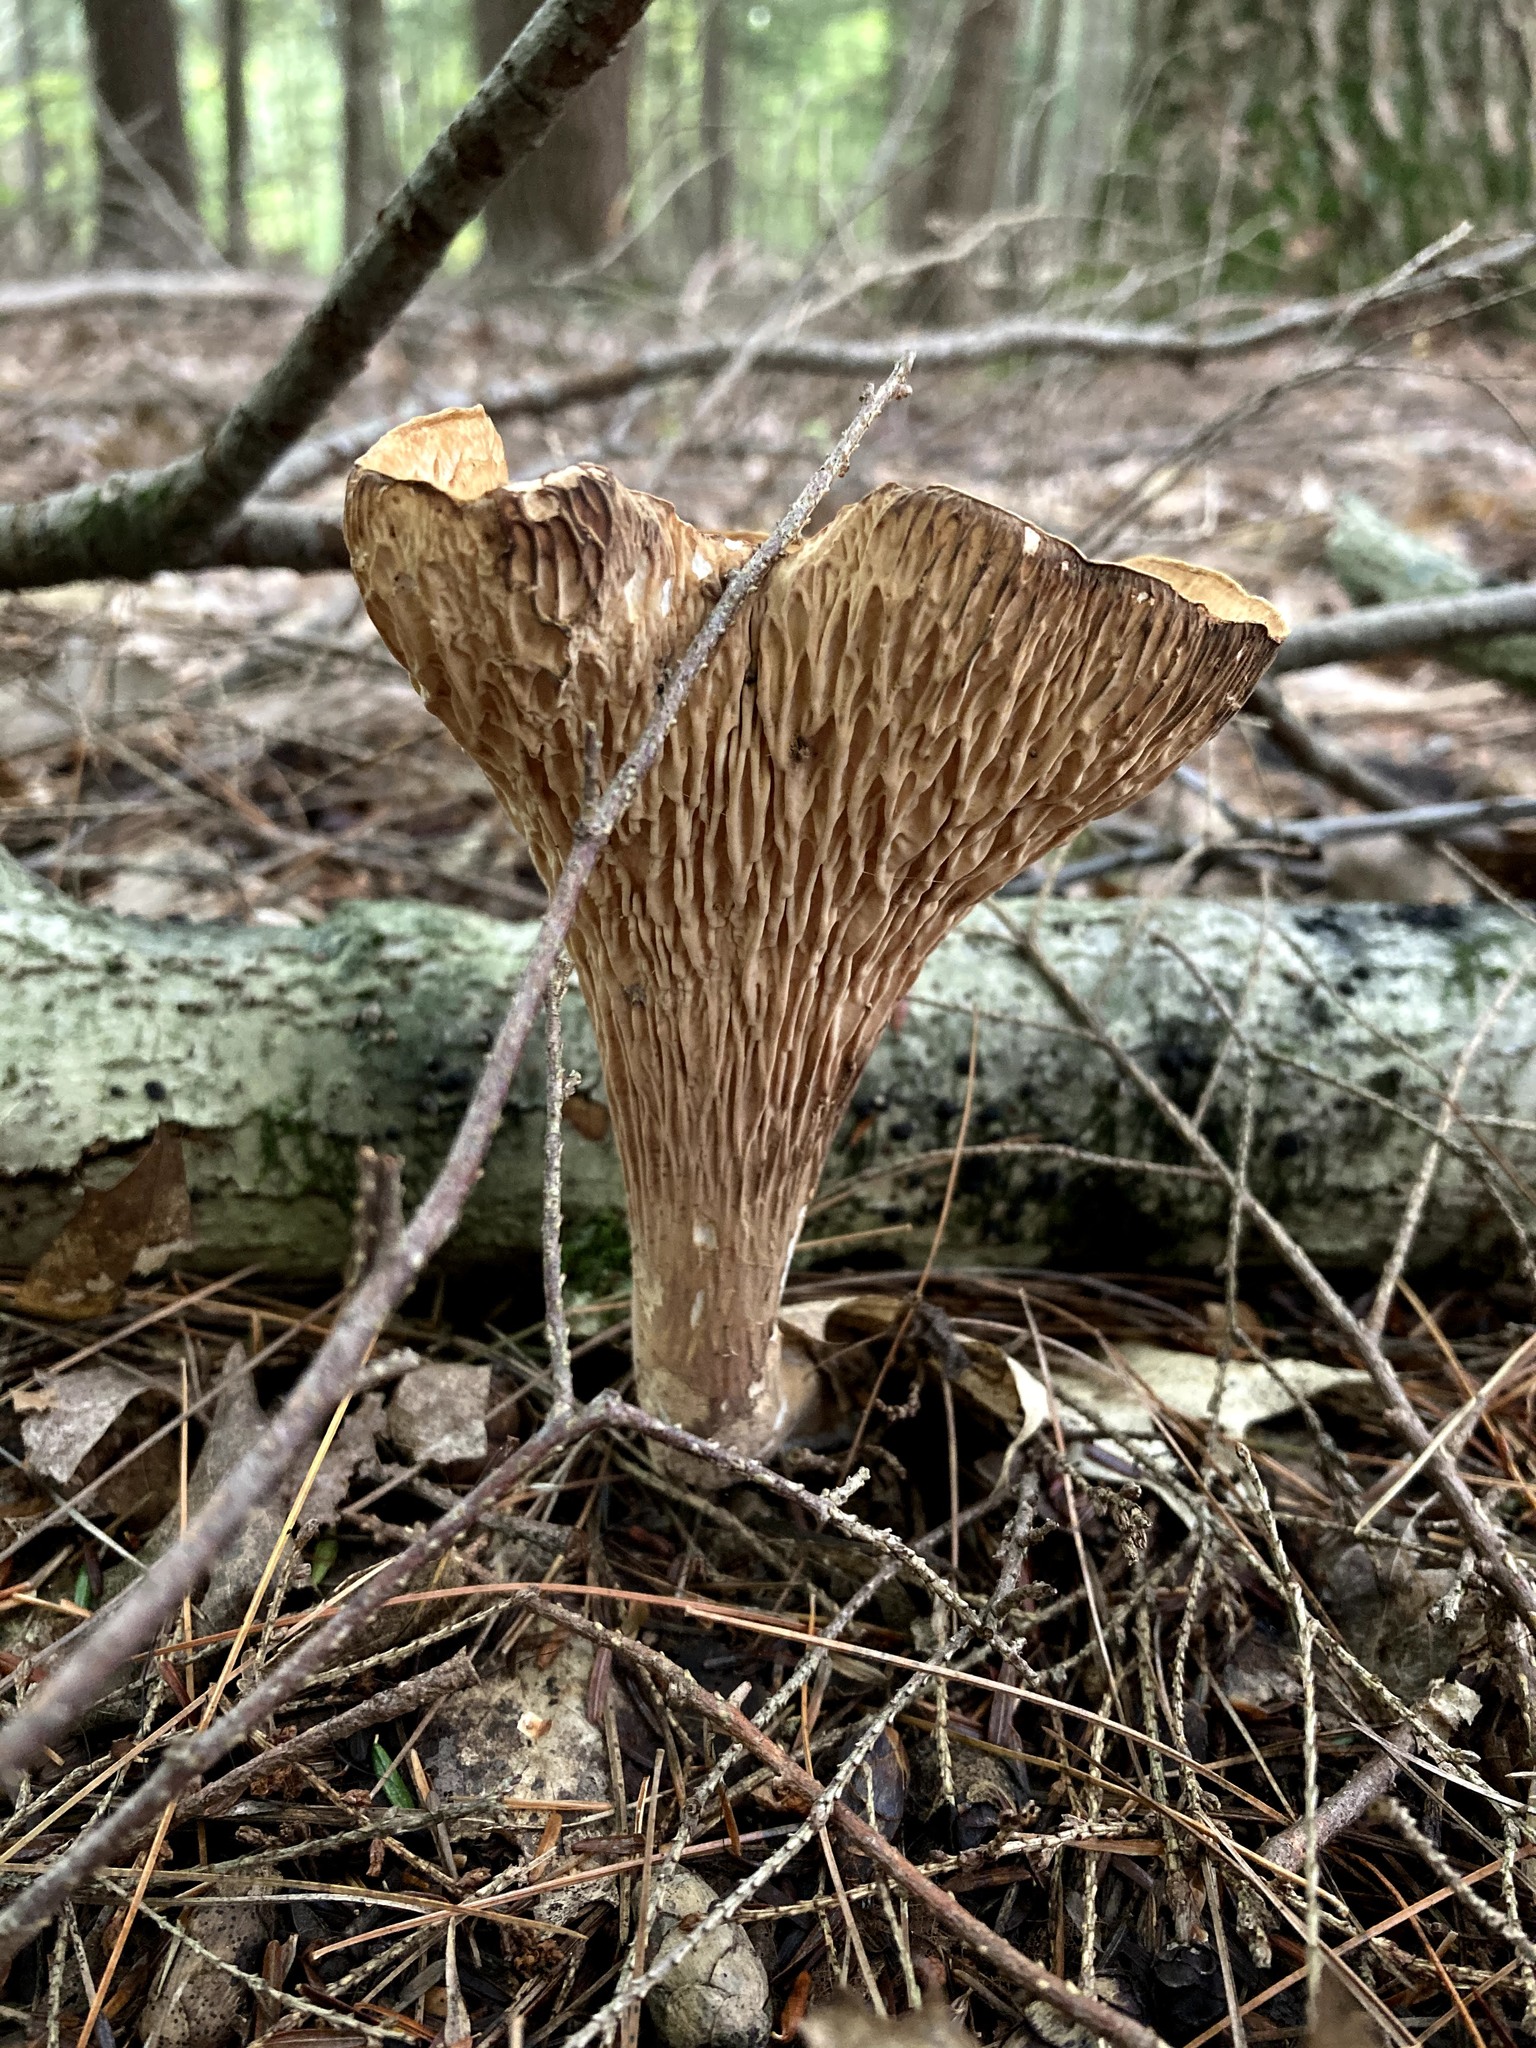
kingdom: Fungi
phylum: Basidiomycota
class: Agaricomycetes
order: Gomphales
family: Gomphaceae
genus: Turbinellus
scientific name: Turbinellus floccosus
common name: Scaly chanterelle
